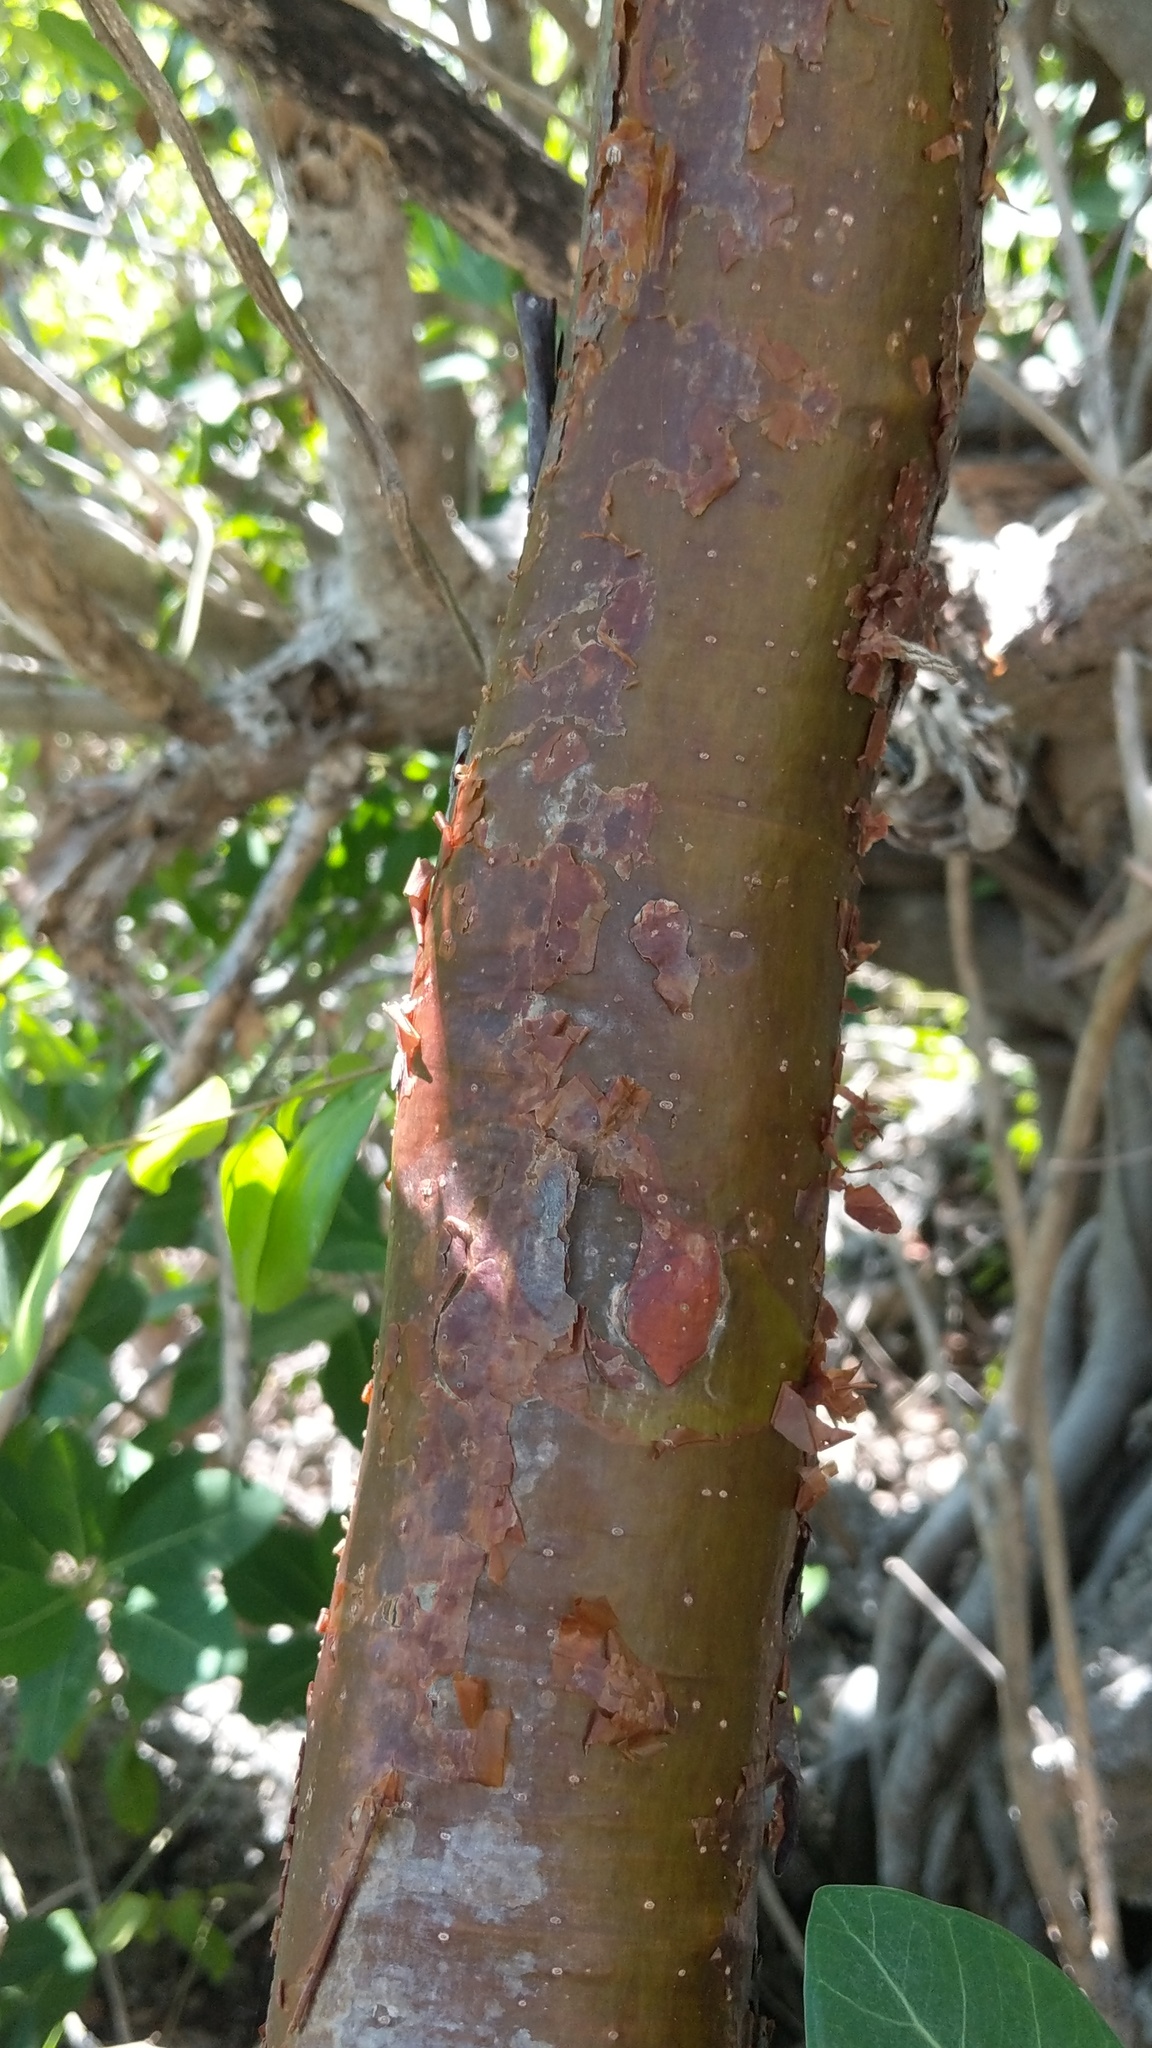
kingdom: Plantae
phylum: Tracheophyta
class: Magnoliopsida
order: Sapindales
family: Burseraceae
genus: Bursera
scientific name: Bursera simaruba
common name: Turpentine tree
